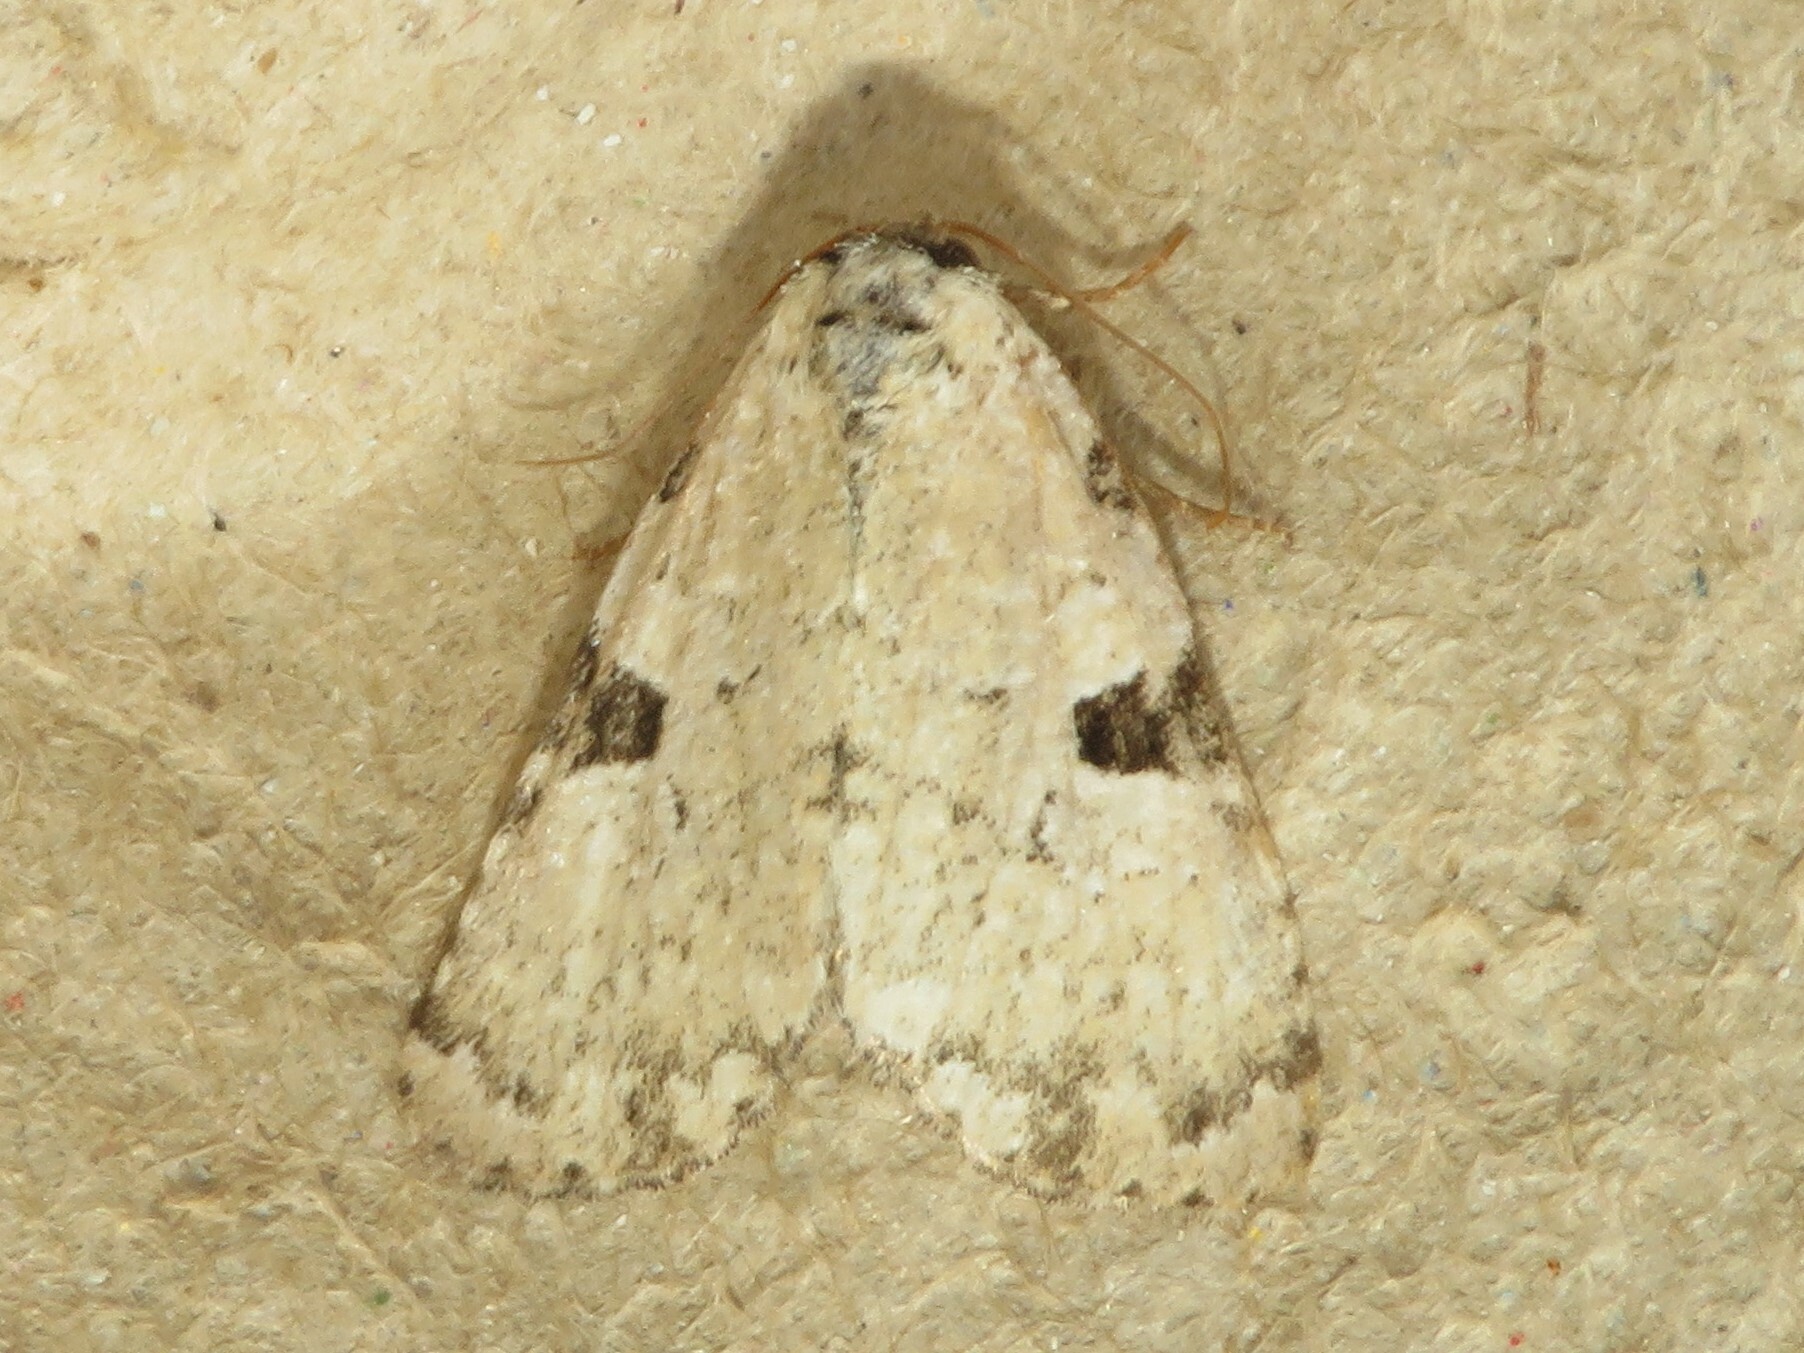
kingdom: Animalia
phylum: Arthropoda
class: Insecta
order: Lepidoptera
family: Noctuidae
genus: Leuconycta
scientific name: Leuconycta diphteroides
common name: Green leuconycta moth
